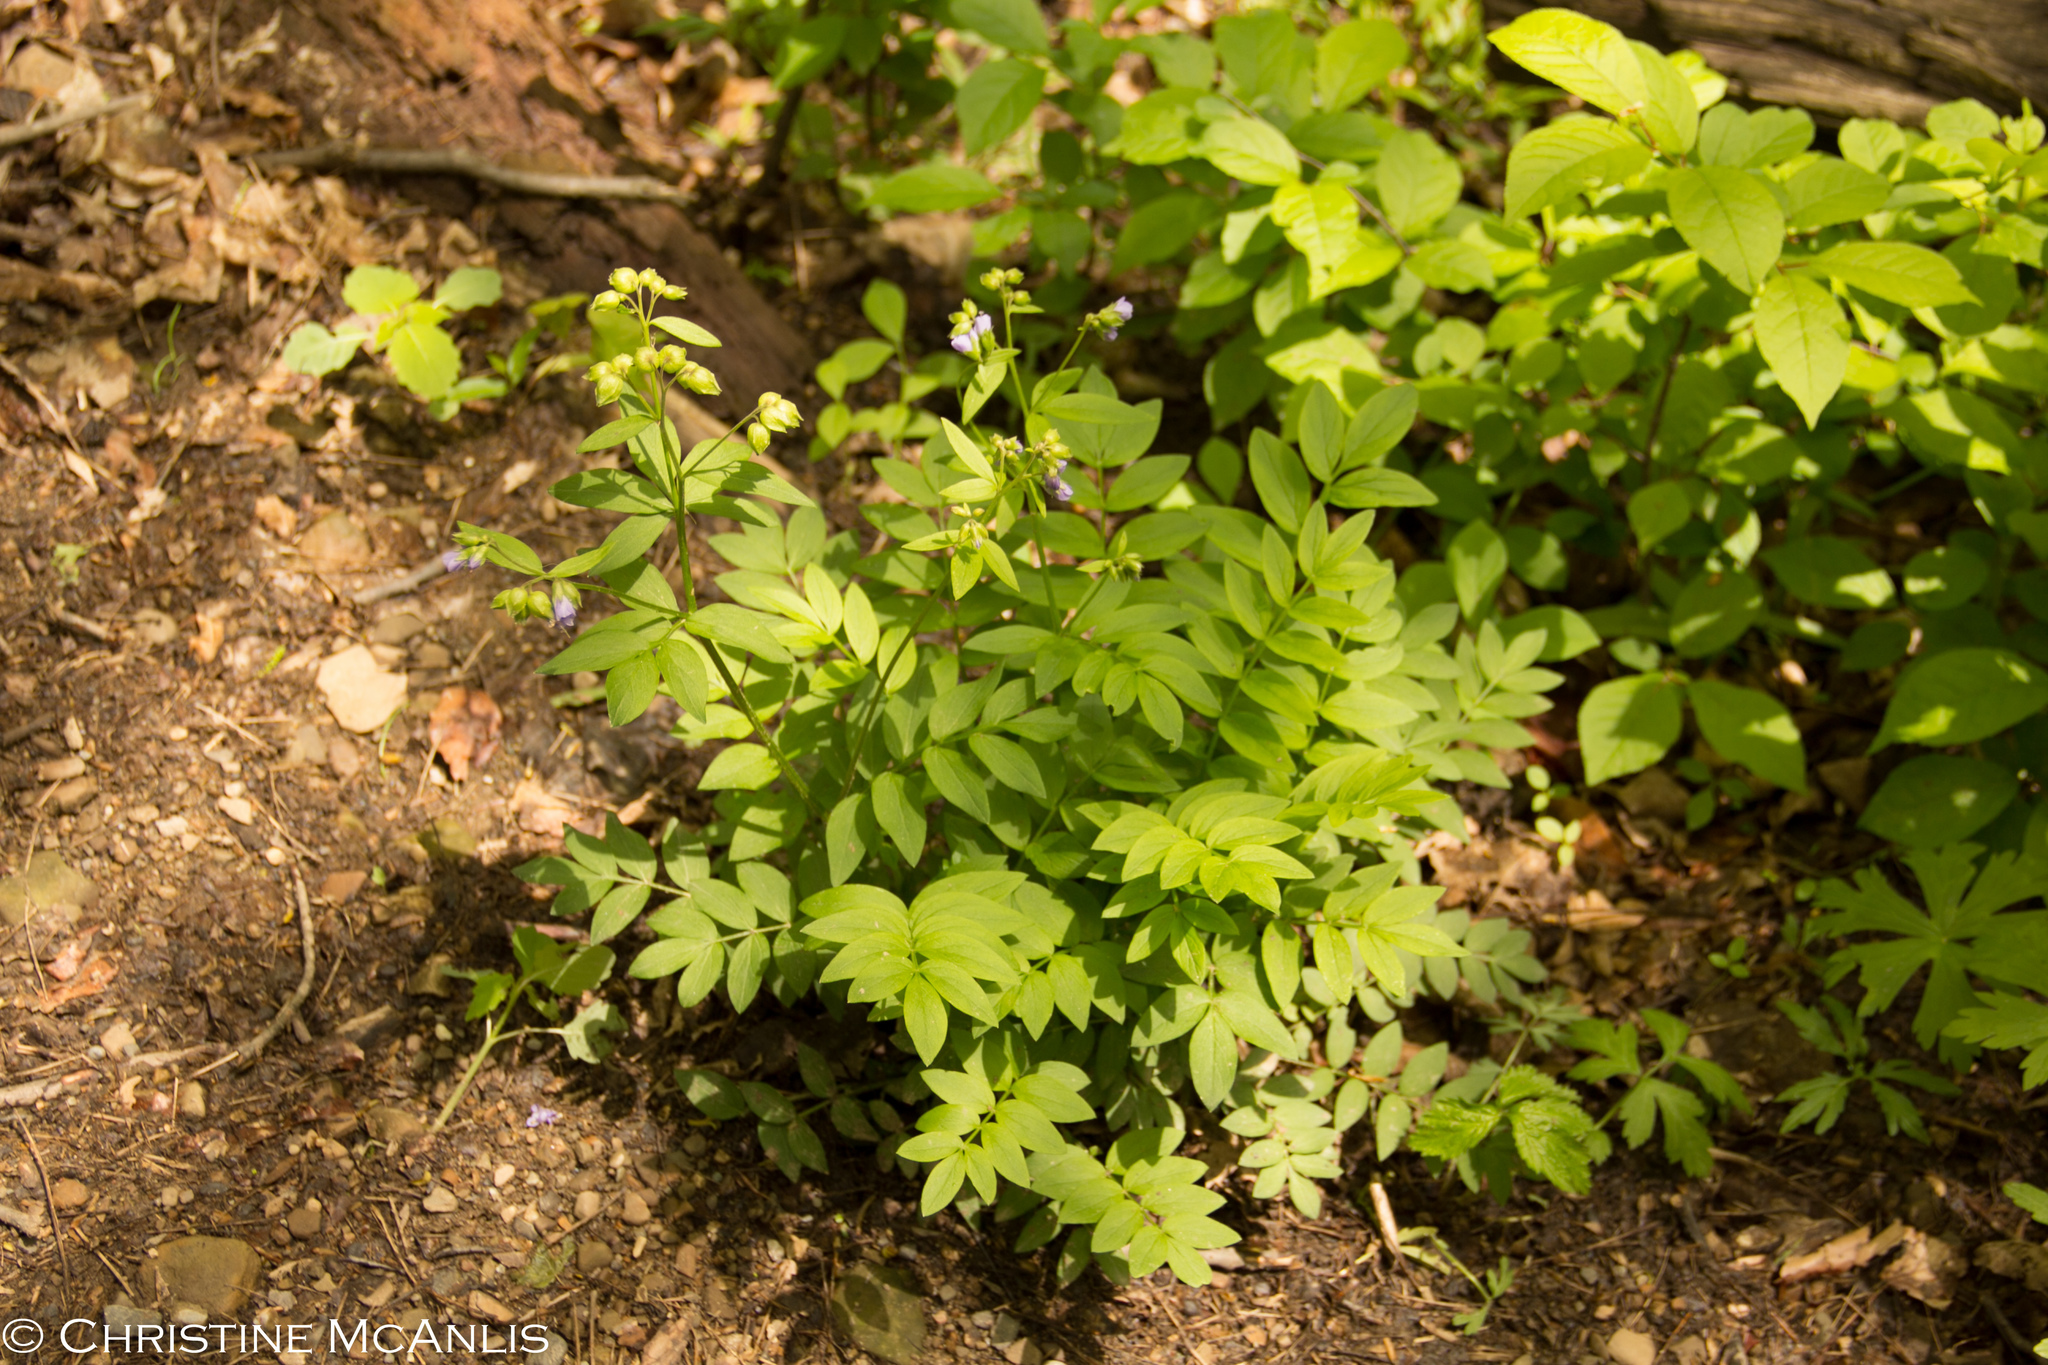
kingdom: Plantae
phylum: Tracheophyta
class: Magnoliopsida
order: Ericales
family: Polemoniaceae
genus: Polemonium
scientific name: Polemonium reptans
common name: Creeping jacob's-ladder
